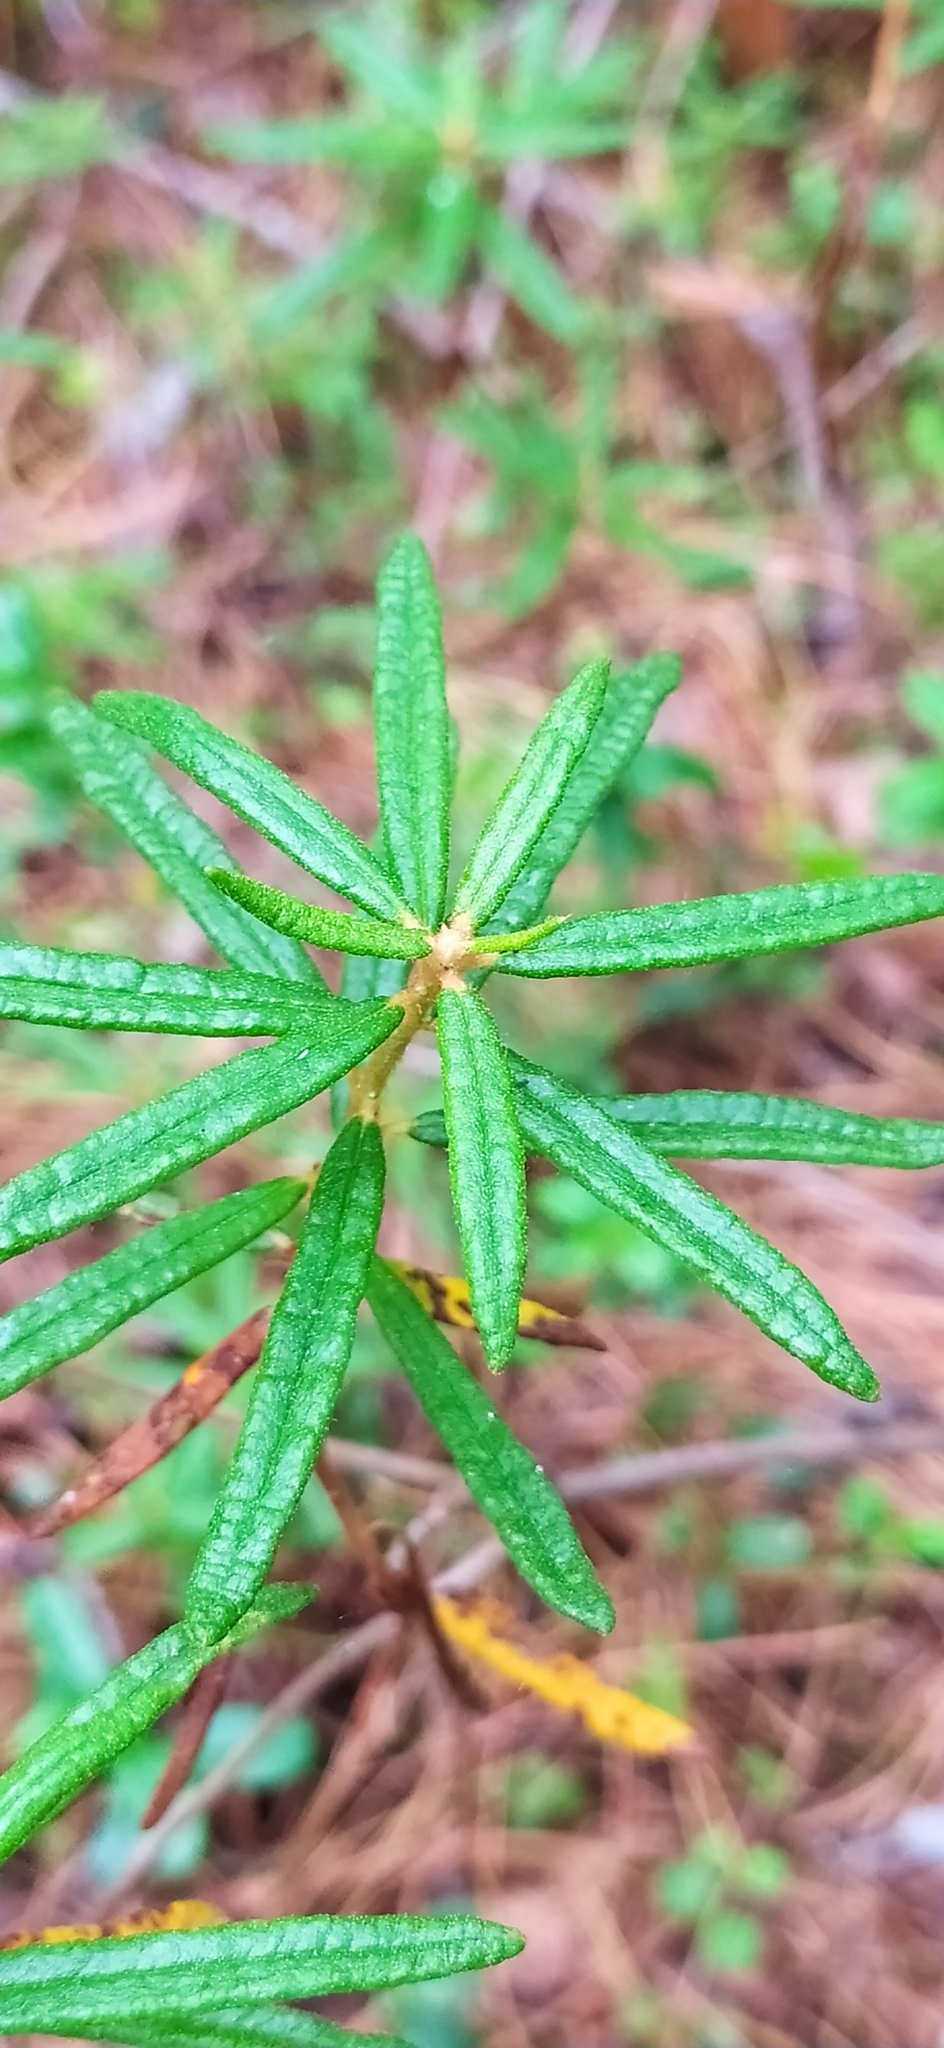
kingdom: Plantae
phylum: Tracheophyta
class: Magnoliopsida
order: Ericales
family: Ericaceae
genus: Rhododendron
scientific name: Rhododendron tomentosum
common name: Marsh labrador tea
